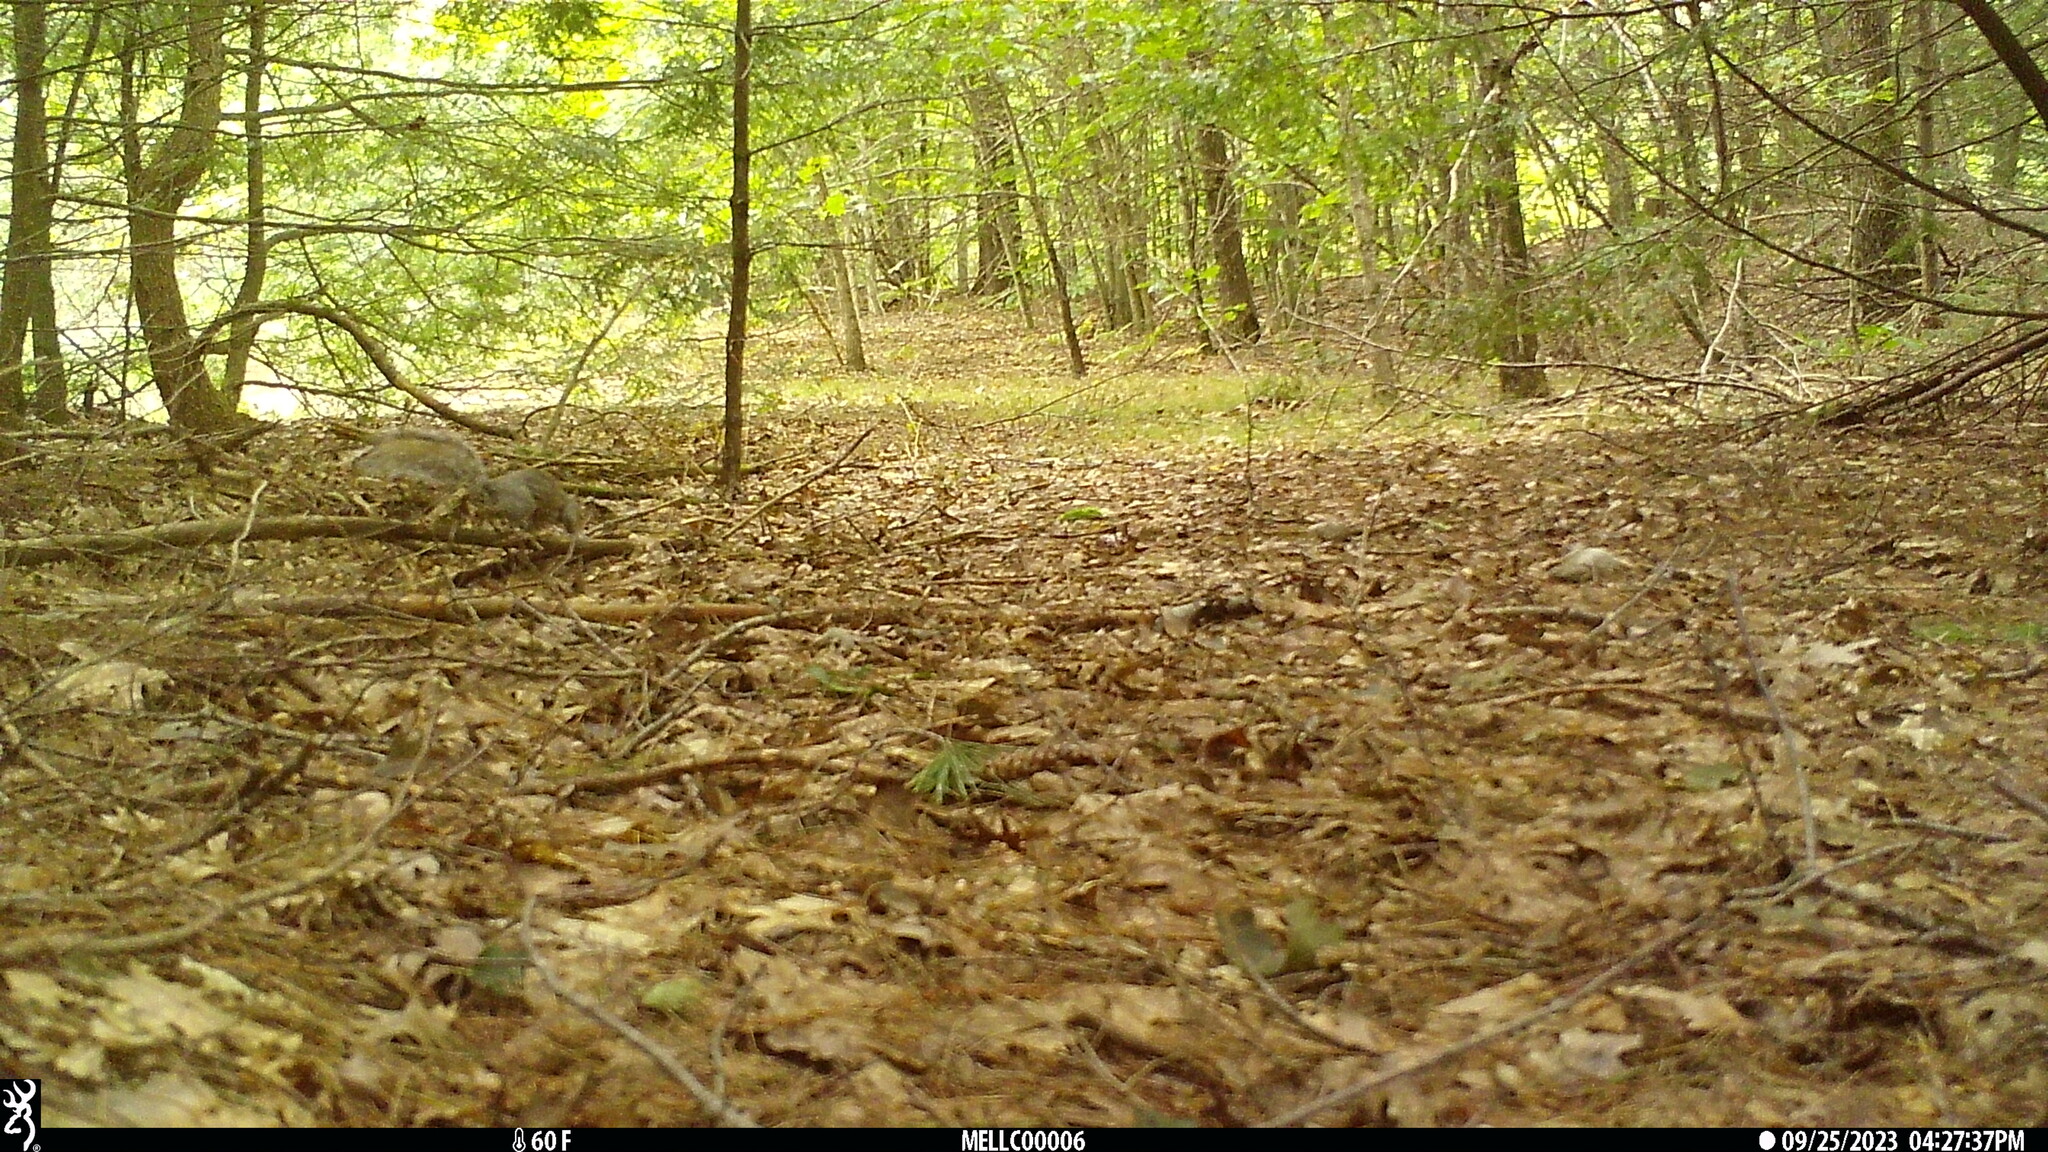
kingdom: Animalia
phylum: Chordata
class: Mammalia
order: Rodentia
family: Sciuridae
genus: Sciurus
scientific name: Sciurus carolinensis
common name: Eastern gray squirrel
